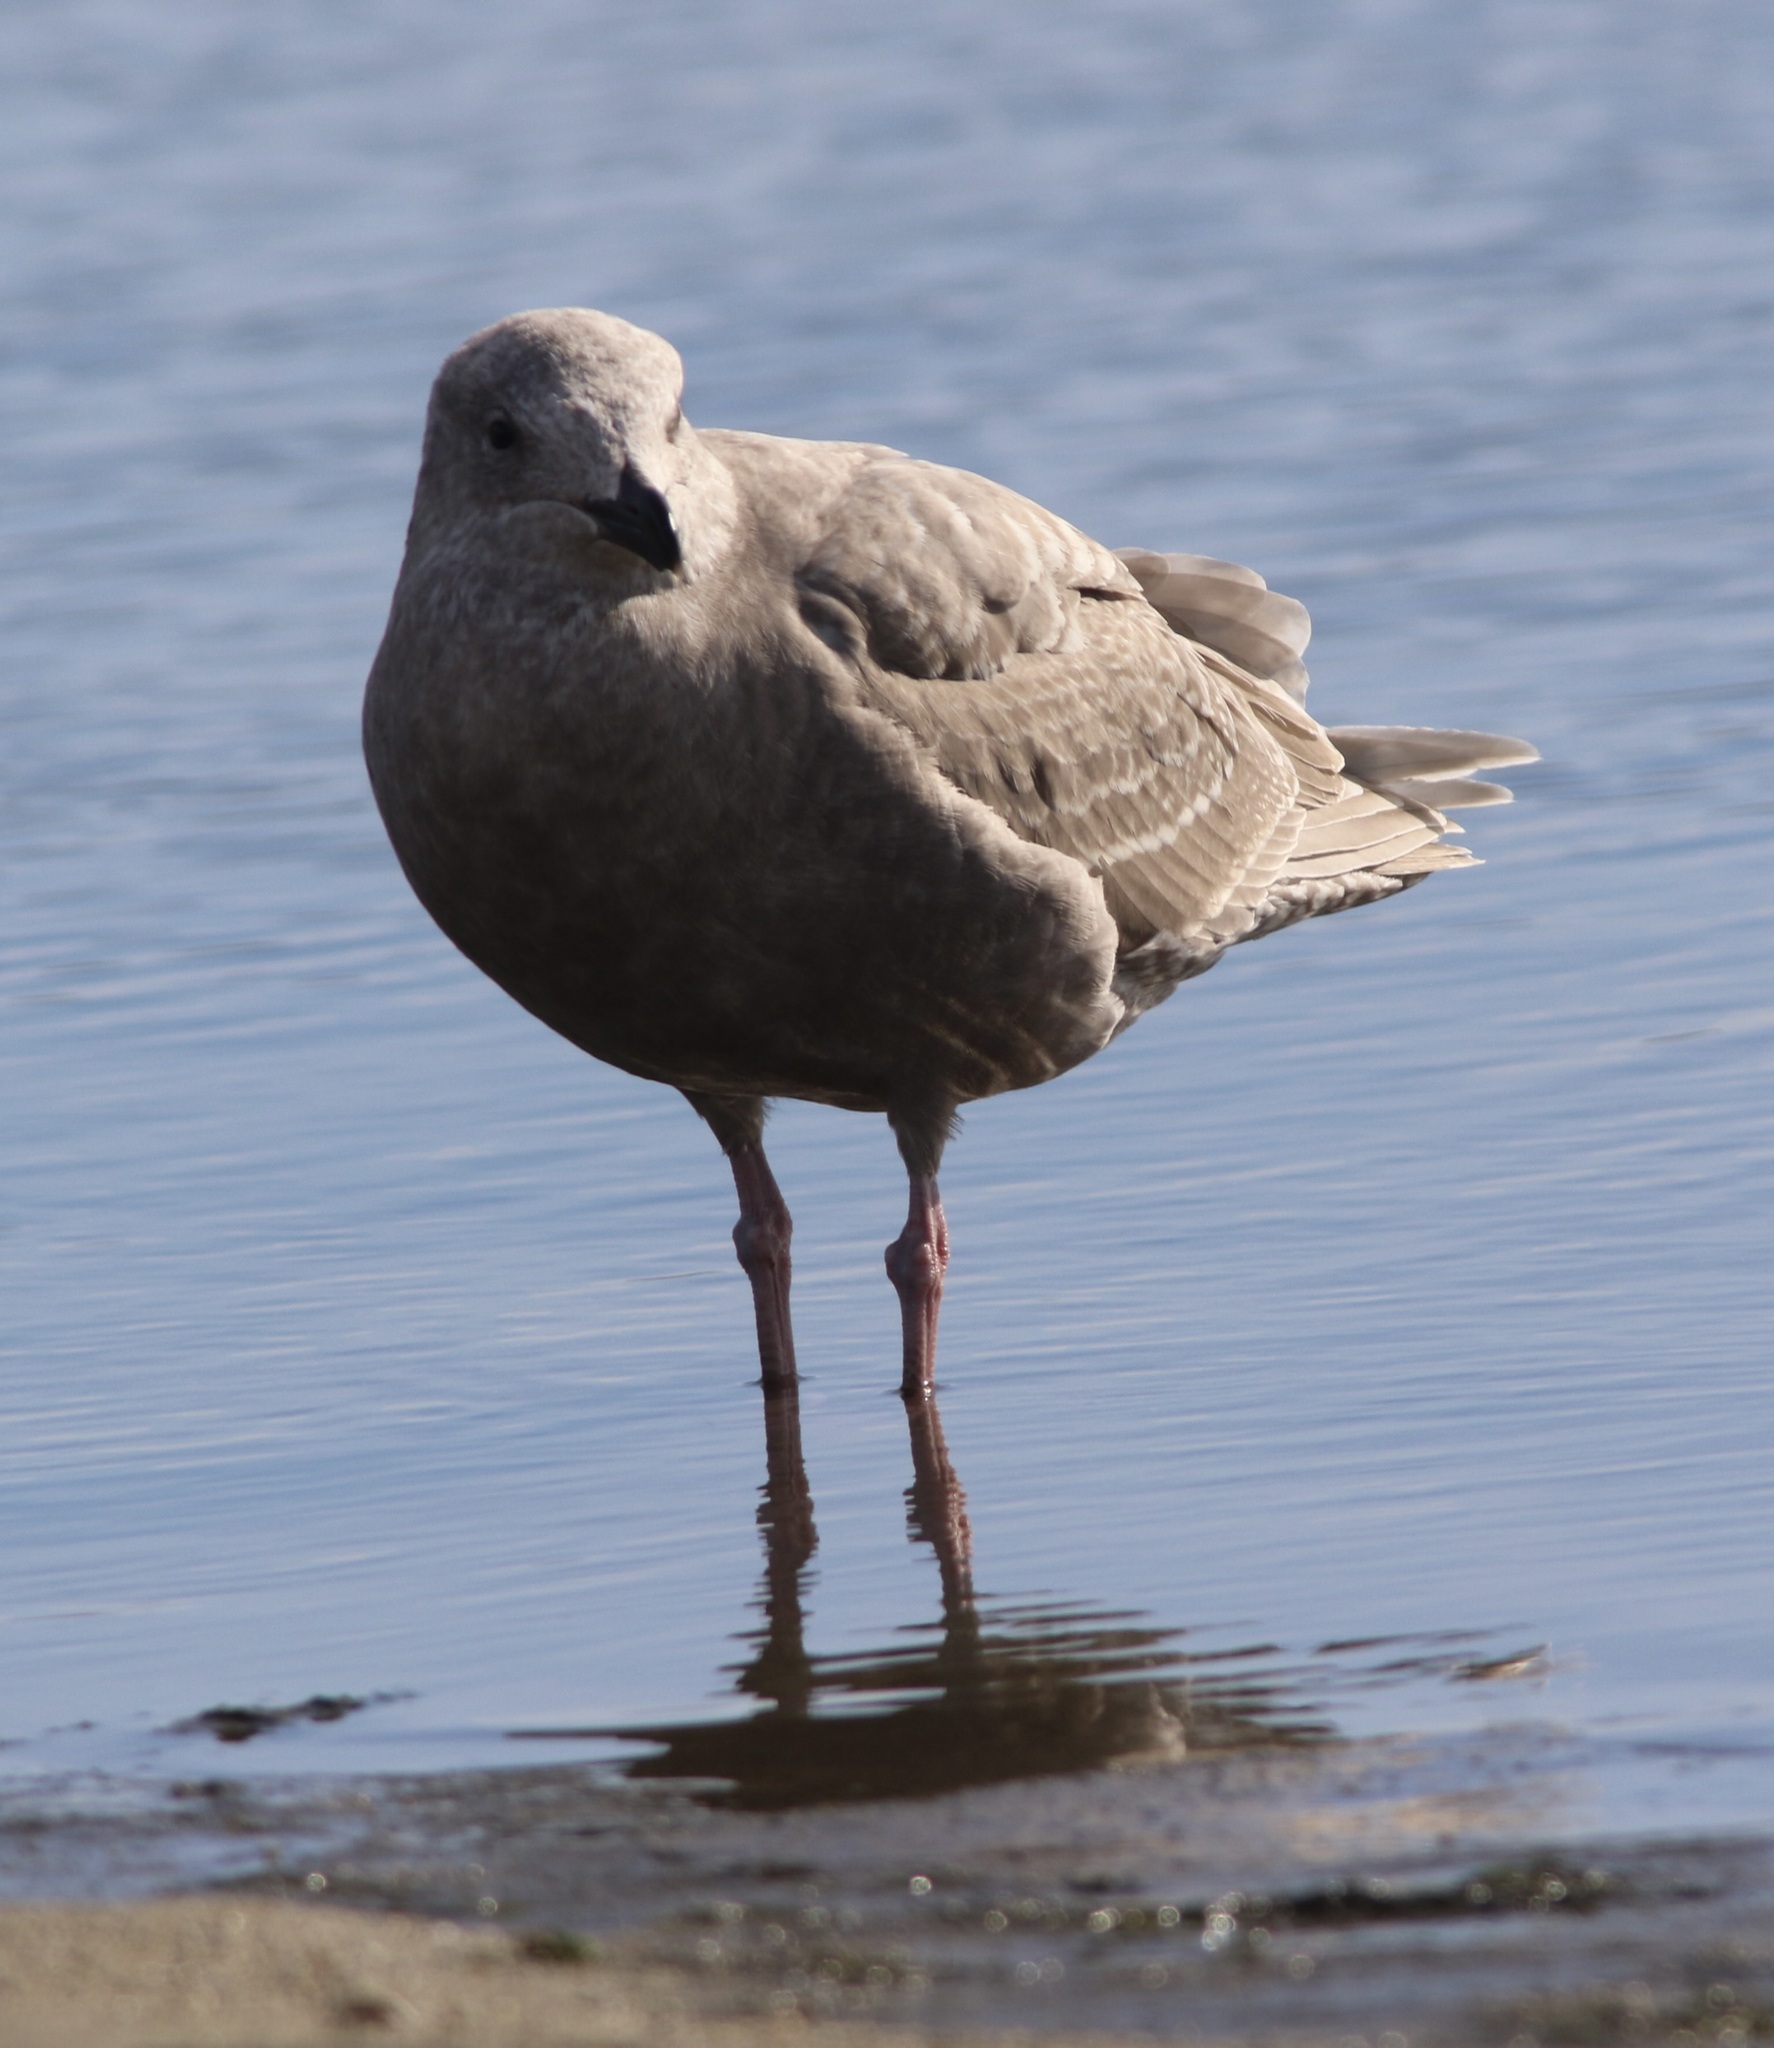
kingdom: Animalia
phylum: Chordata
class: Aves
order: Charadriiformes
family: Laridae
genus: Larus
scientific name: Larus glaucescens
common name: Glaucous-winged gull
